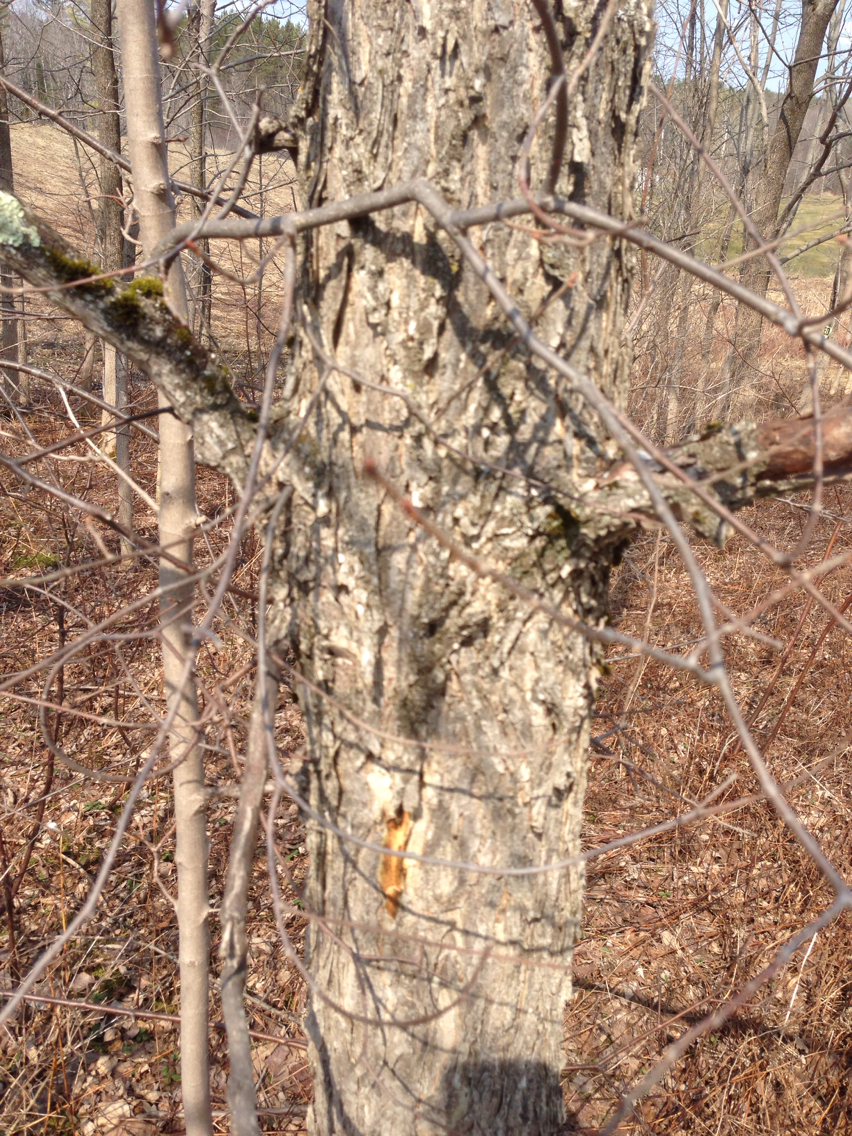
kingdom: Plantae
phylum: Tracheophyta
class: Magnoliopsida
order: Rosales
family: Ulmaceae
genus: Ulmus
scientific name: Ulmus americana
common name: American elm
